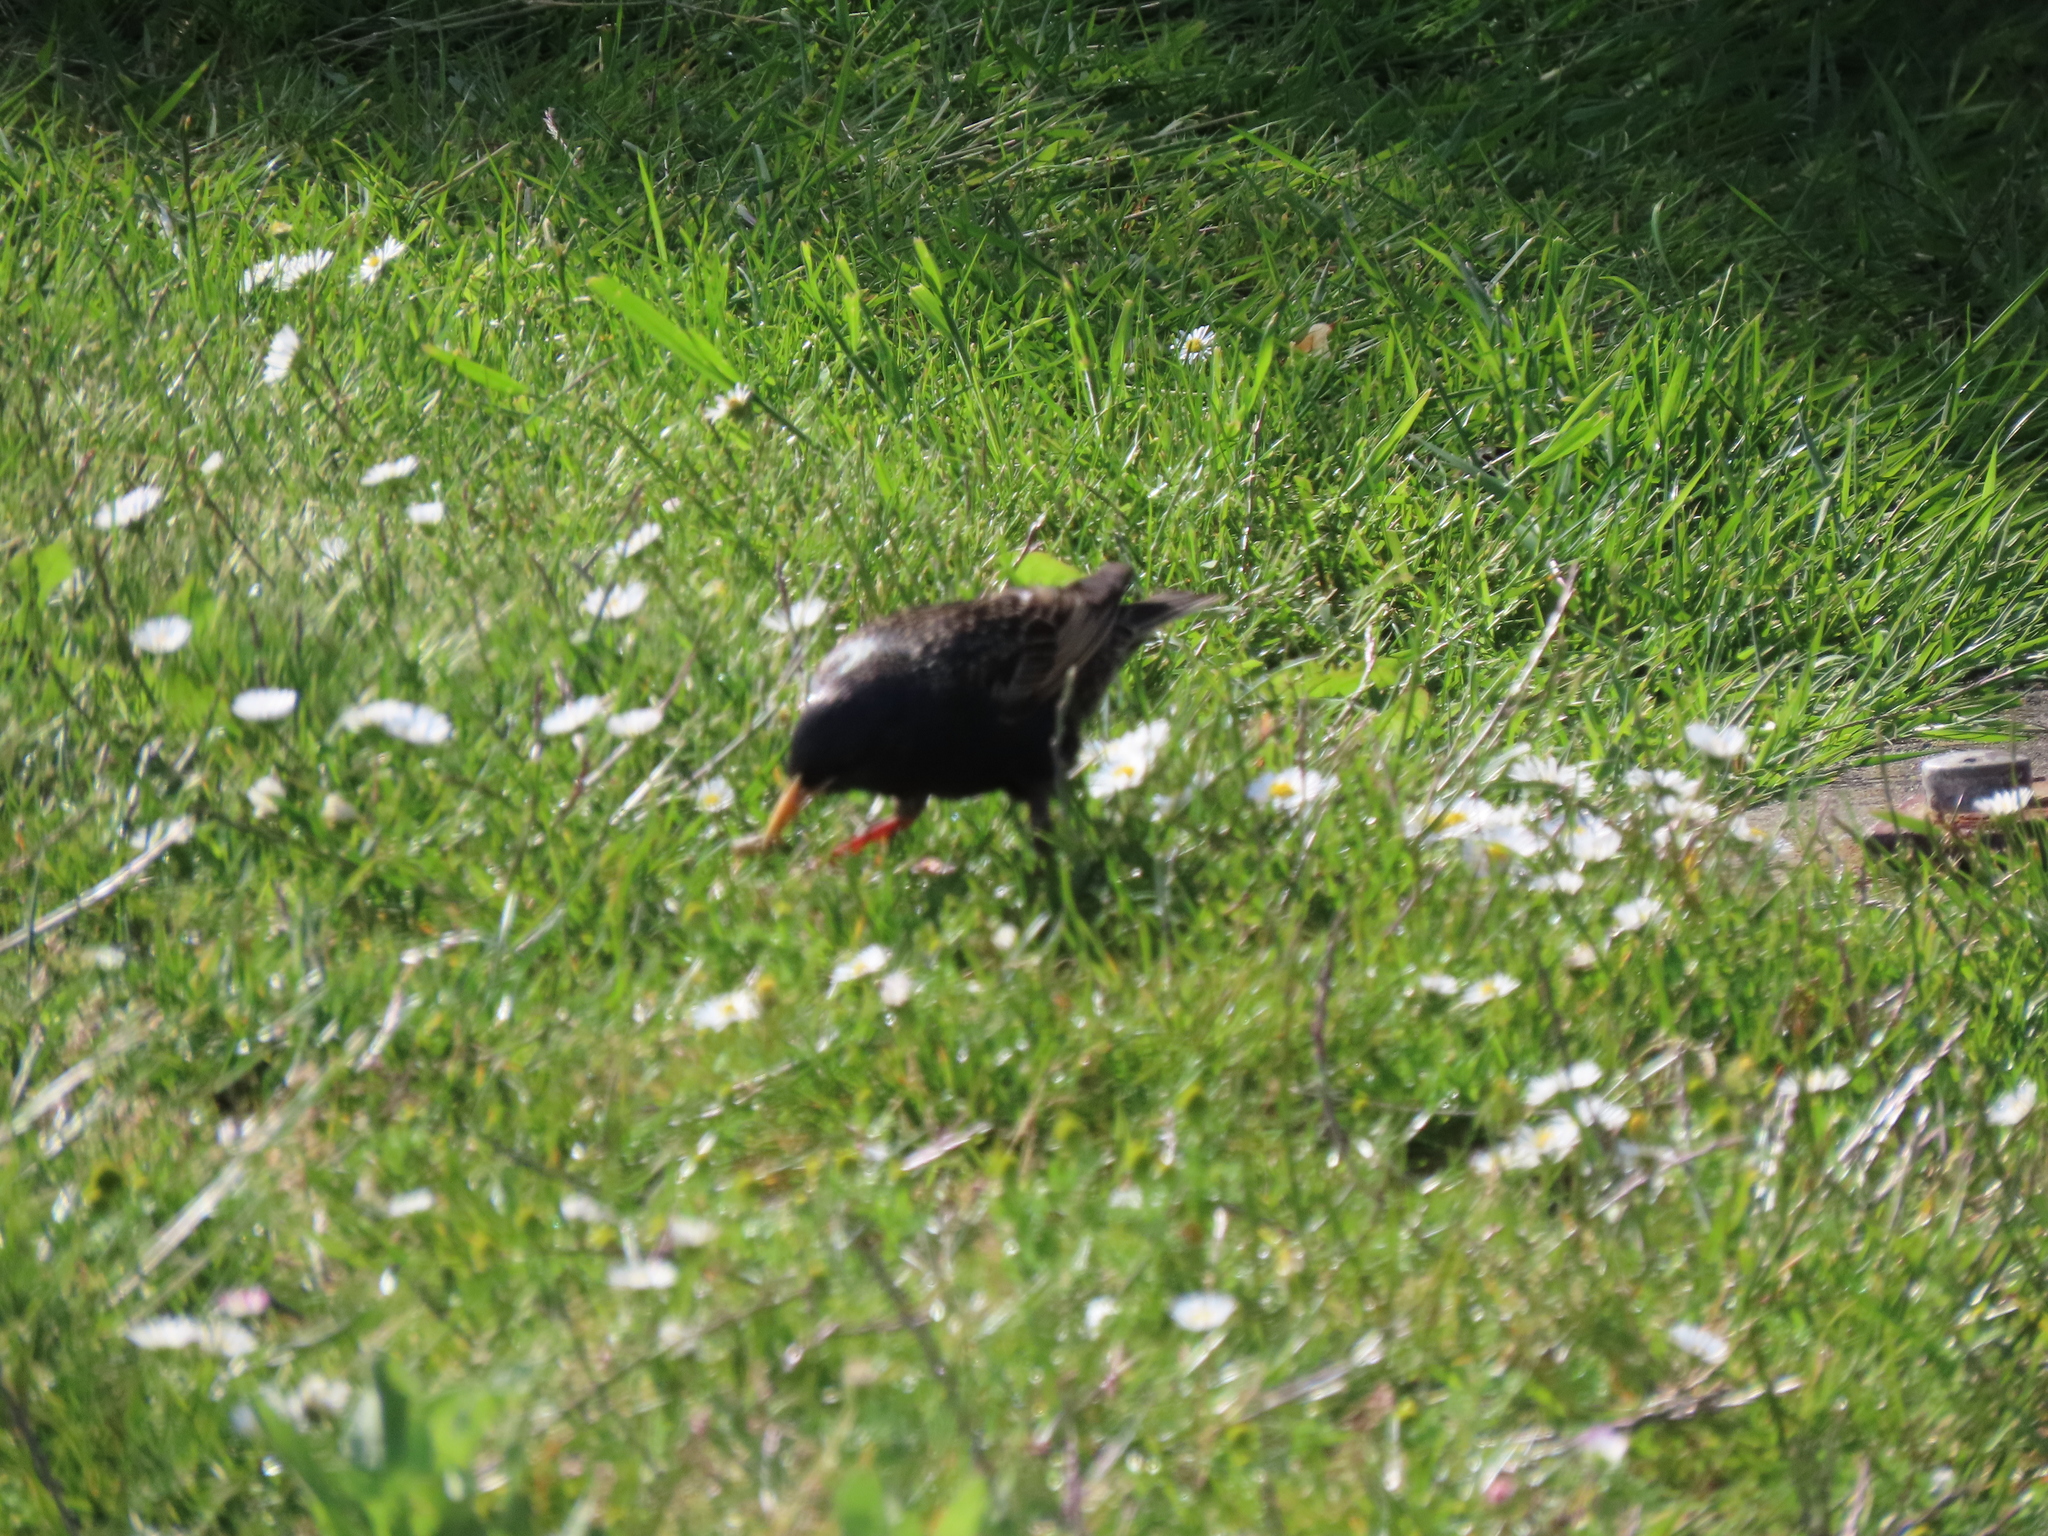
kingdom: Animalia
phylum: Chordata
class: Aves
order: Passeriformes
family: Sturnidae
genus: Sturnus
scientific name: Sturnus vulgaris
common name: Common starling
